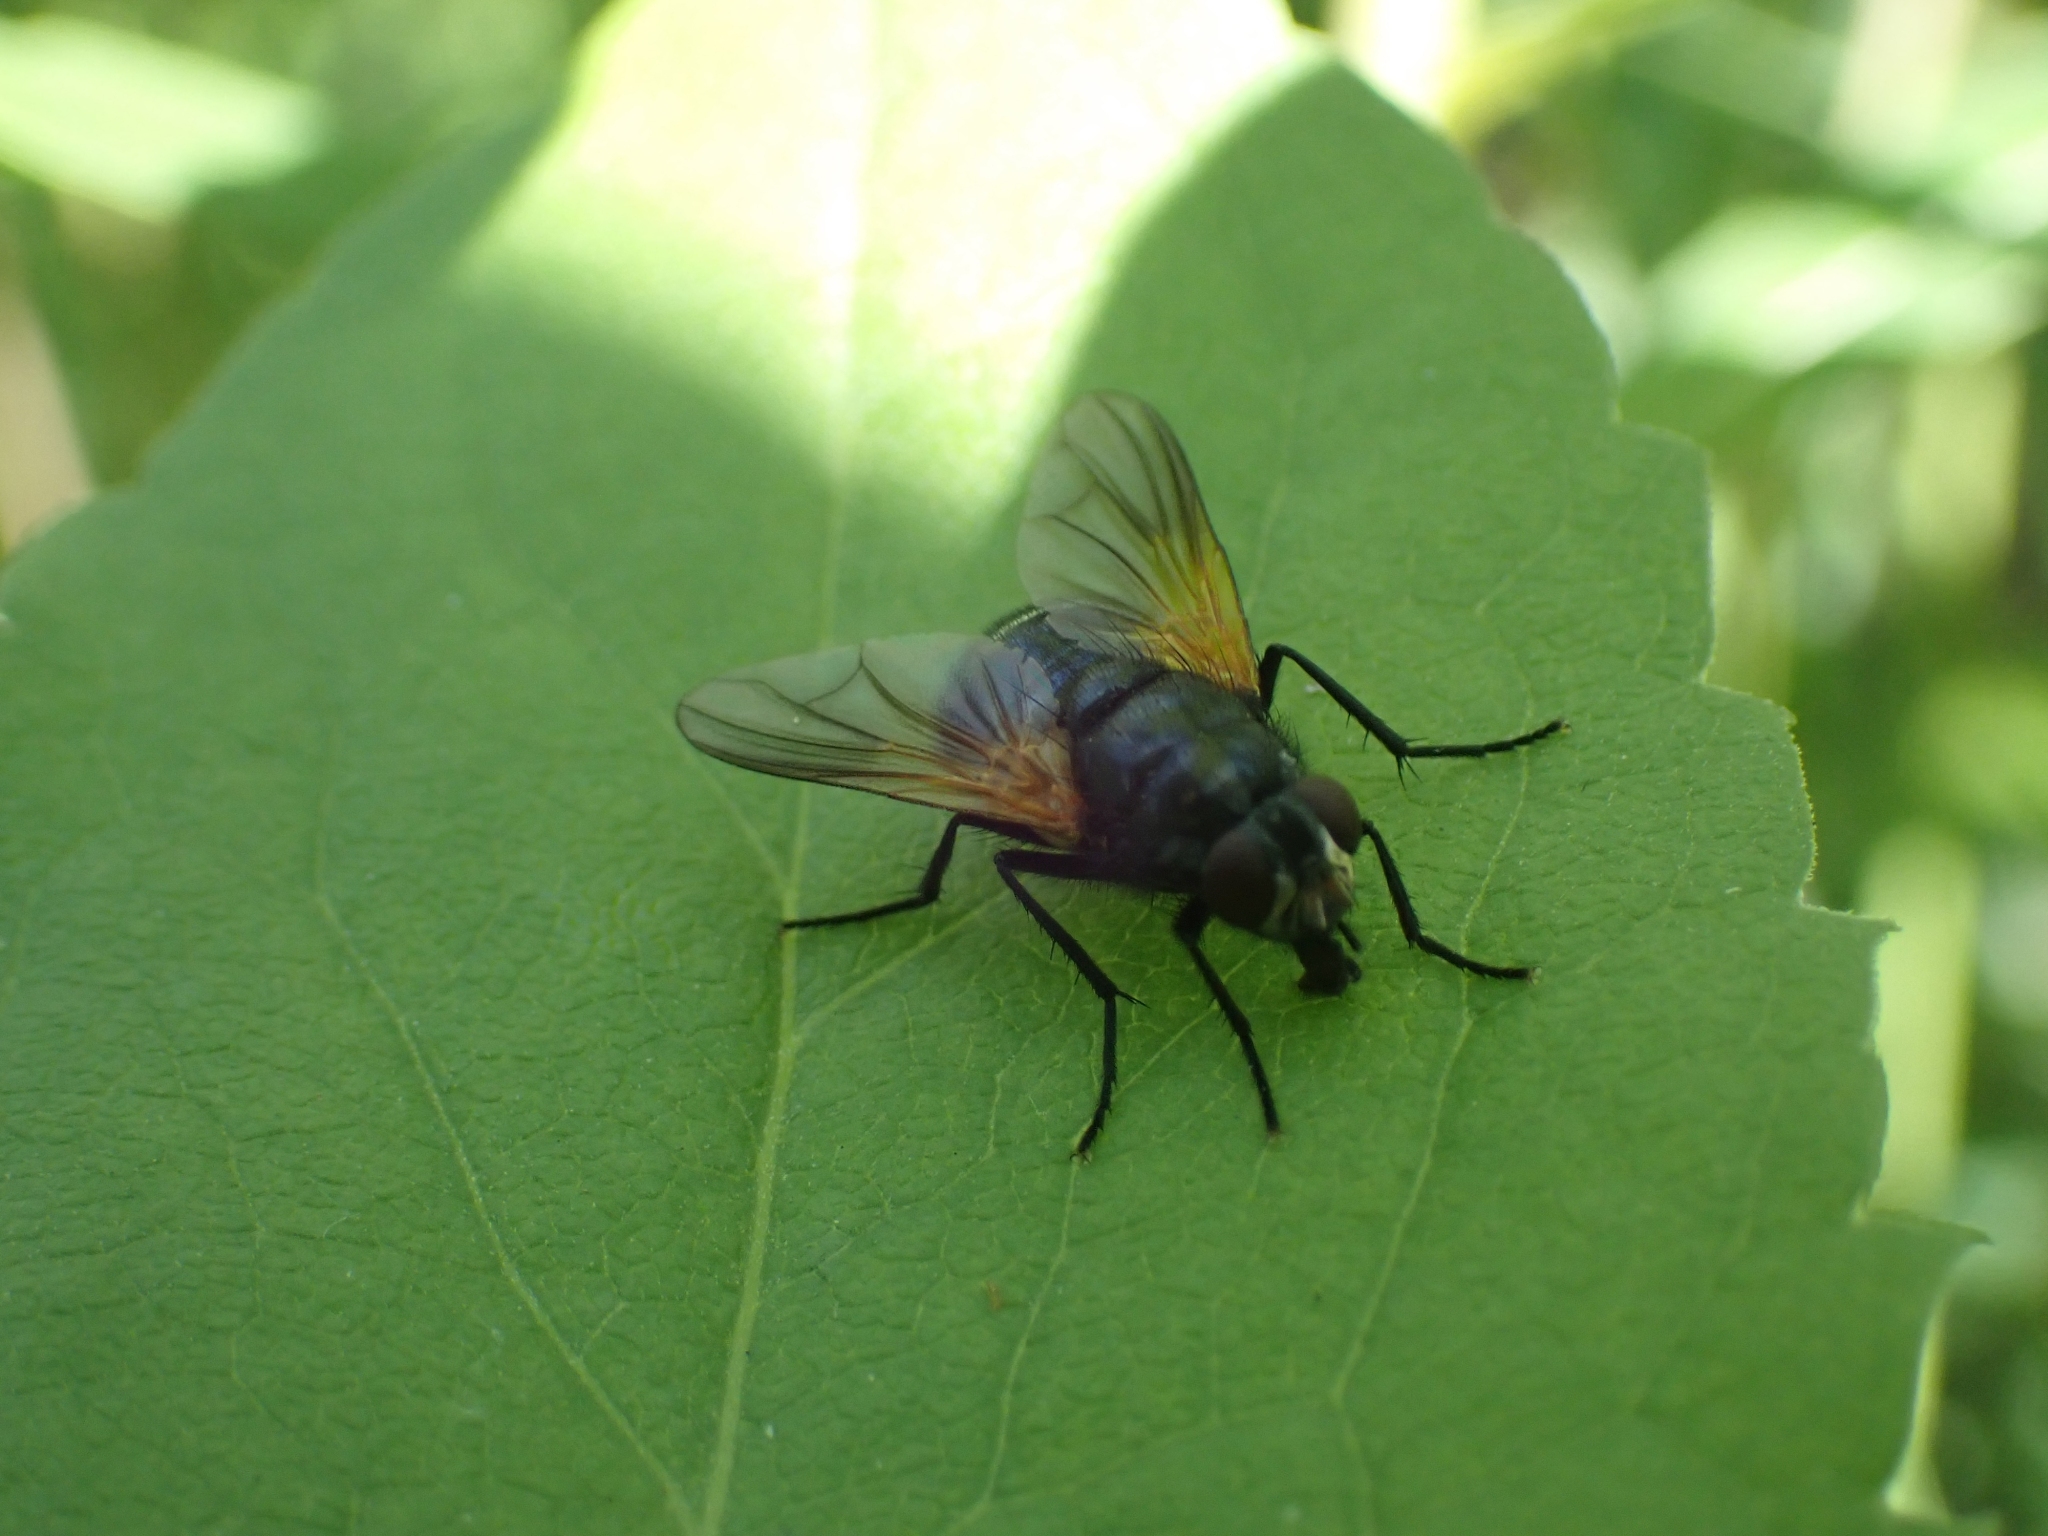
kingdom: Animalia
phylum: Arthropoda
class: Insecta
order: Diptera
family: Muscidae
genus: Mesembrina
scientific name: Mesembrina latreillii
